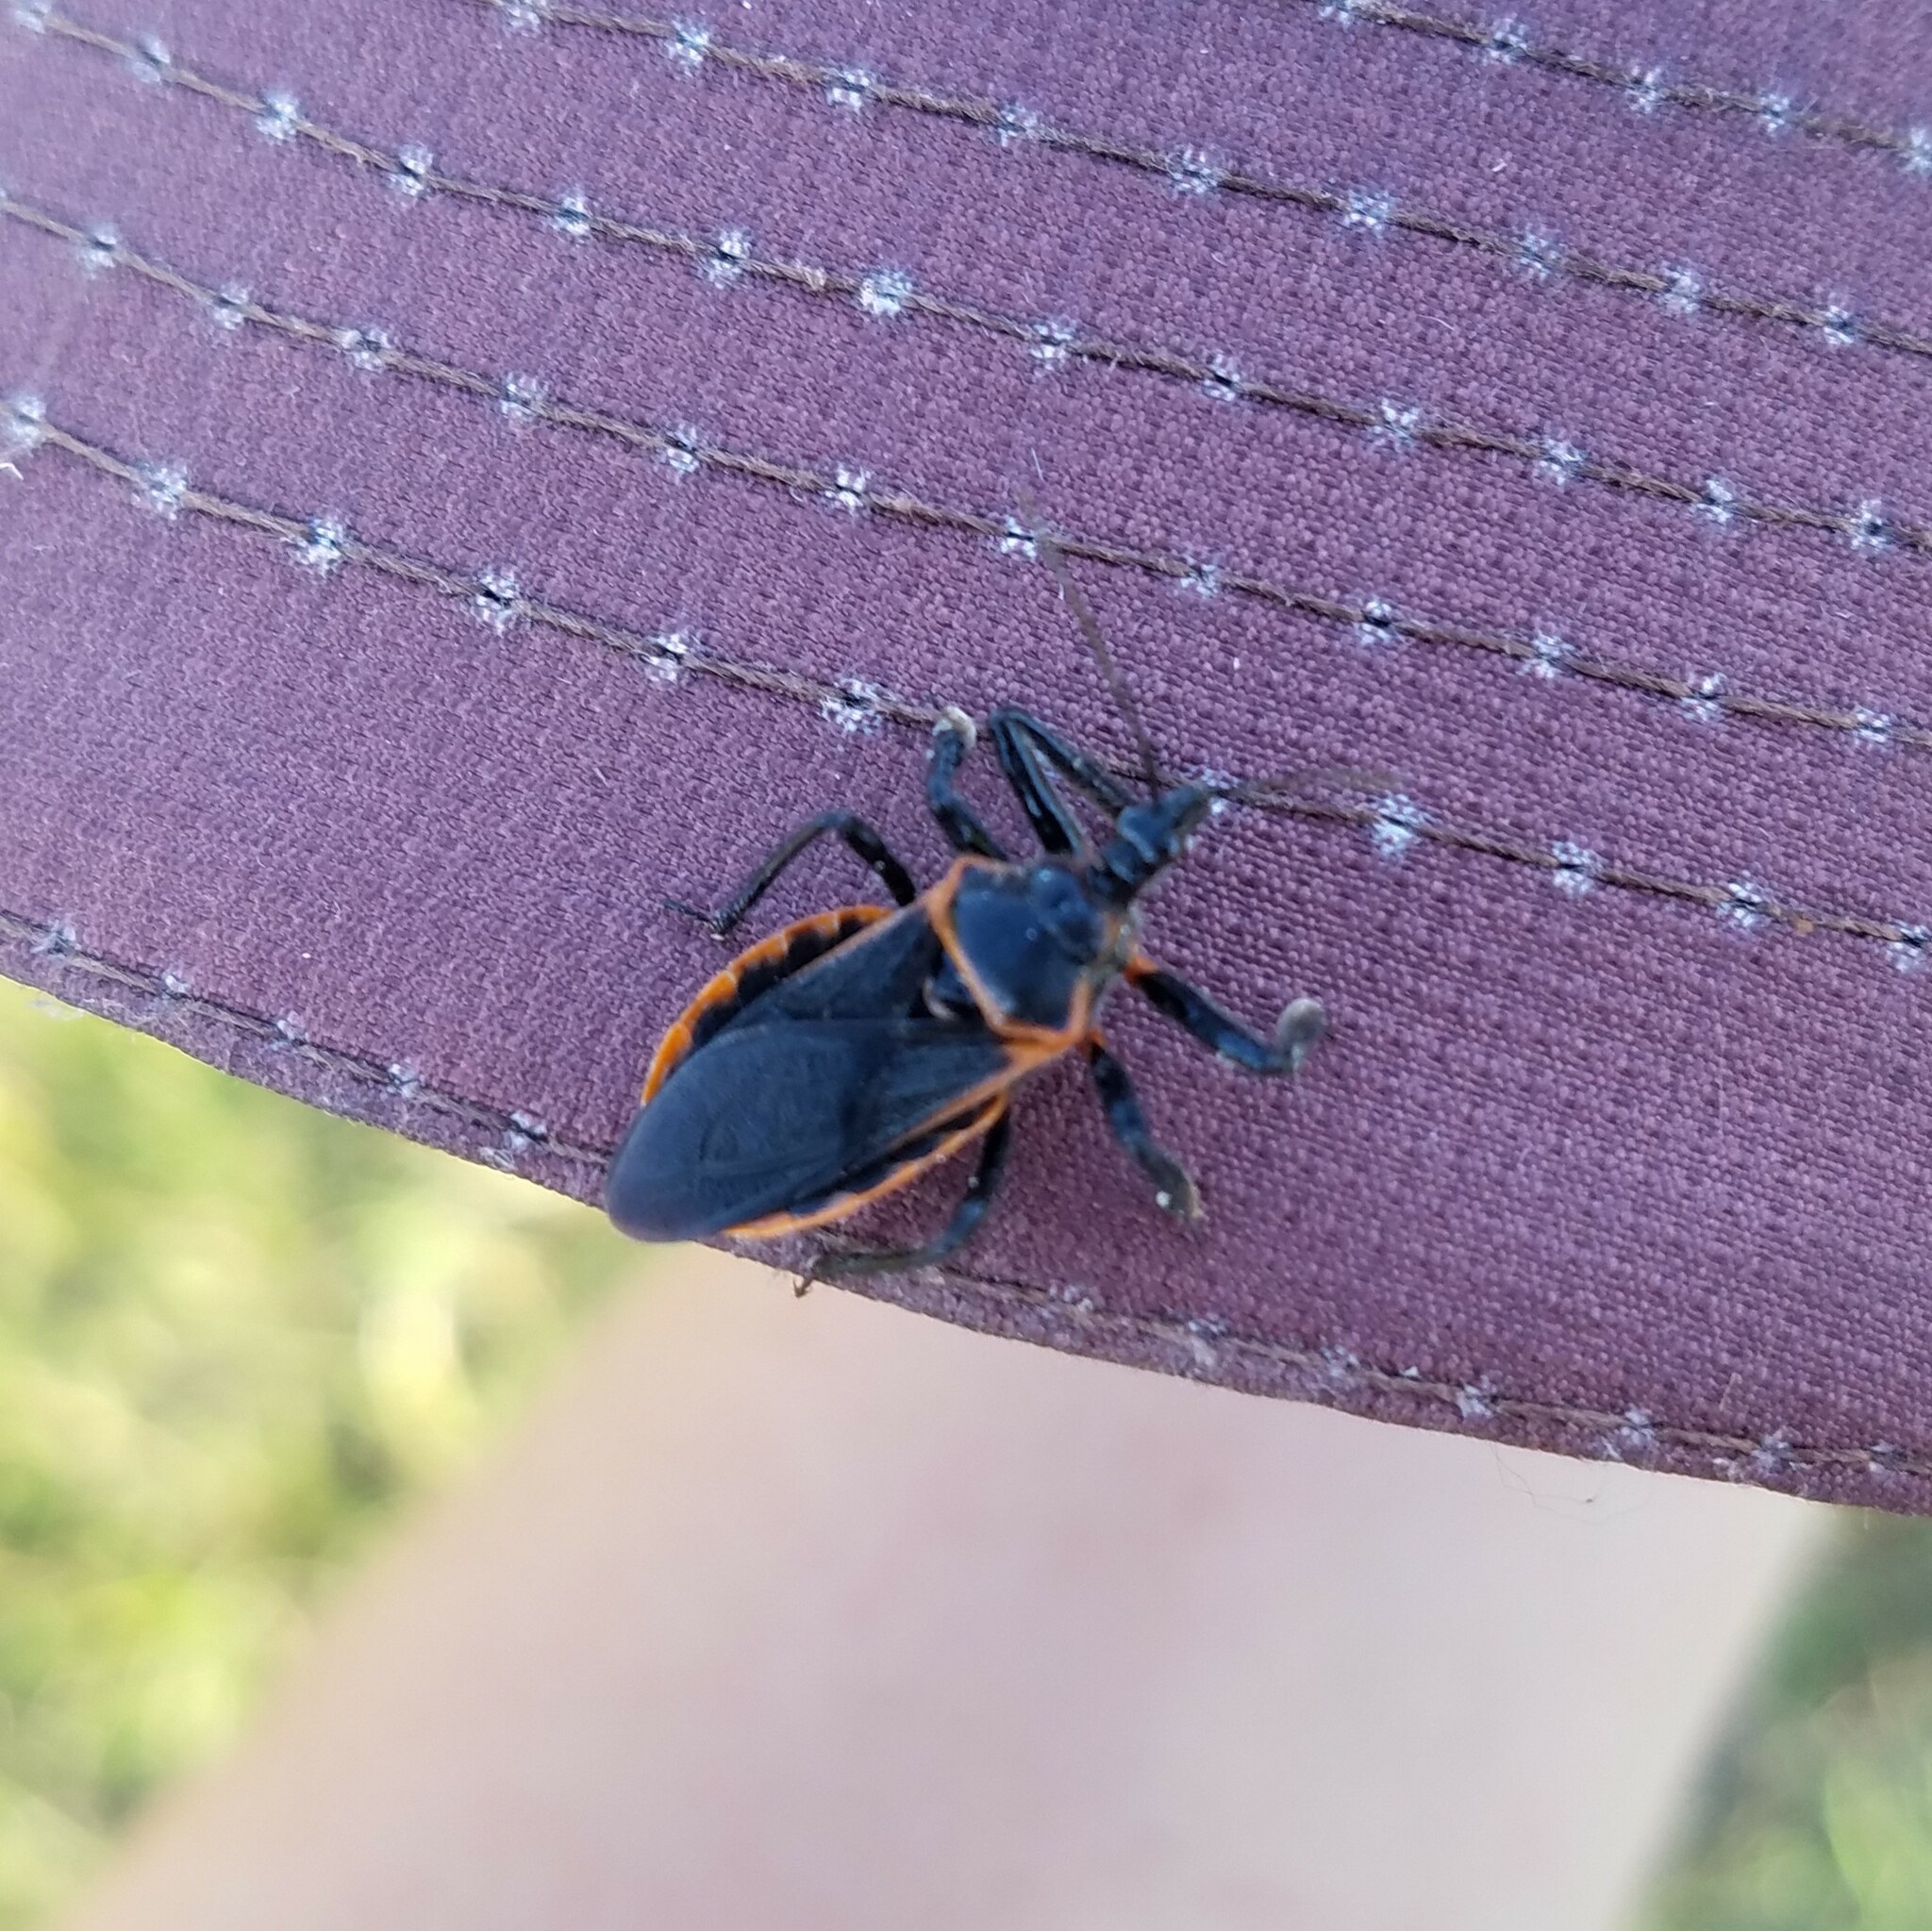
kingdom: Animalia
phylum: Arthropoda
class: Insecta
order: Hemiptera
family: Reduviidae
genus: Apiomerus
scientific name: Apiomerus crassipes
